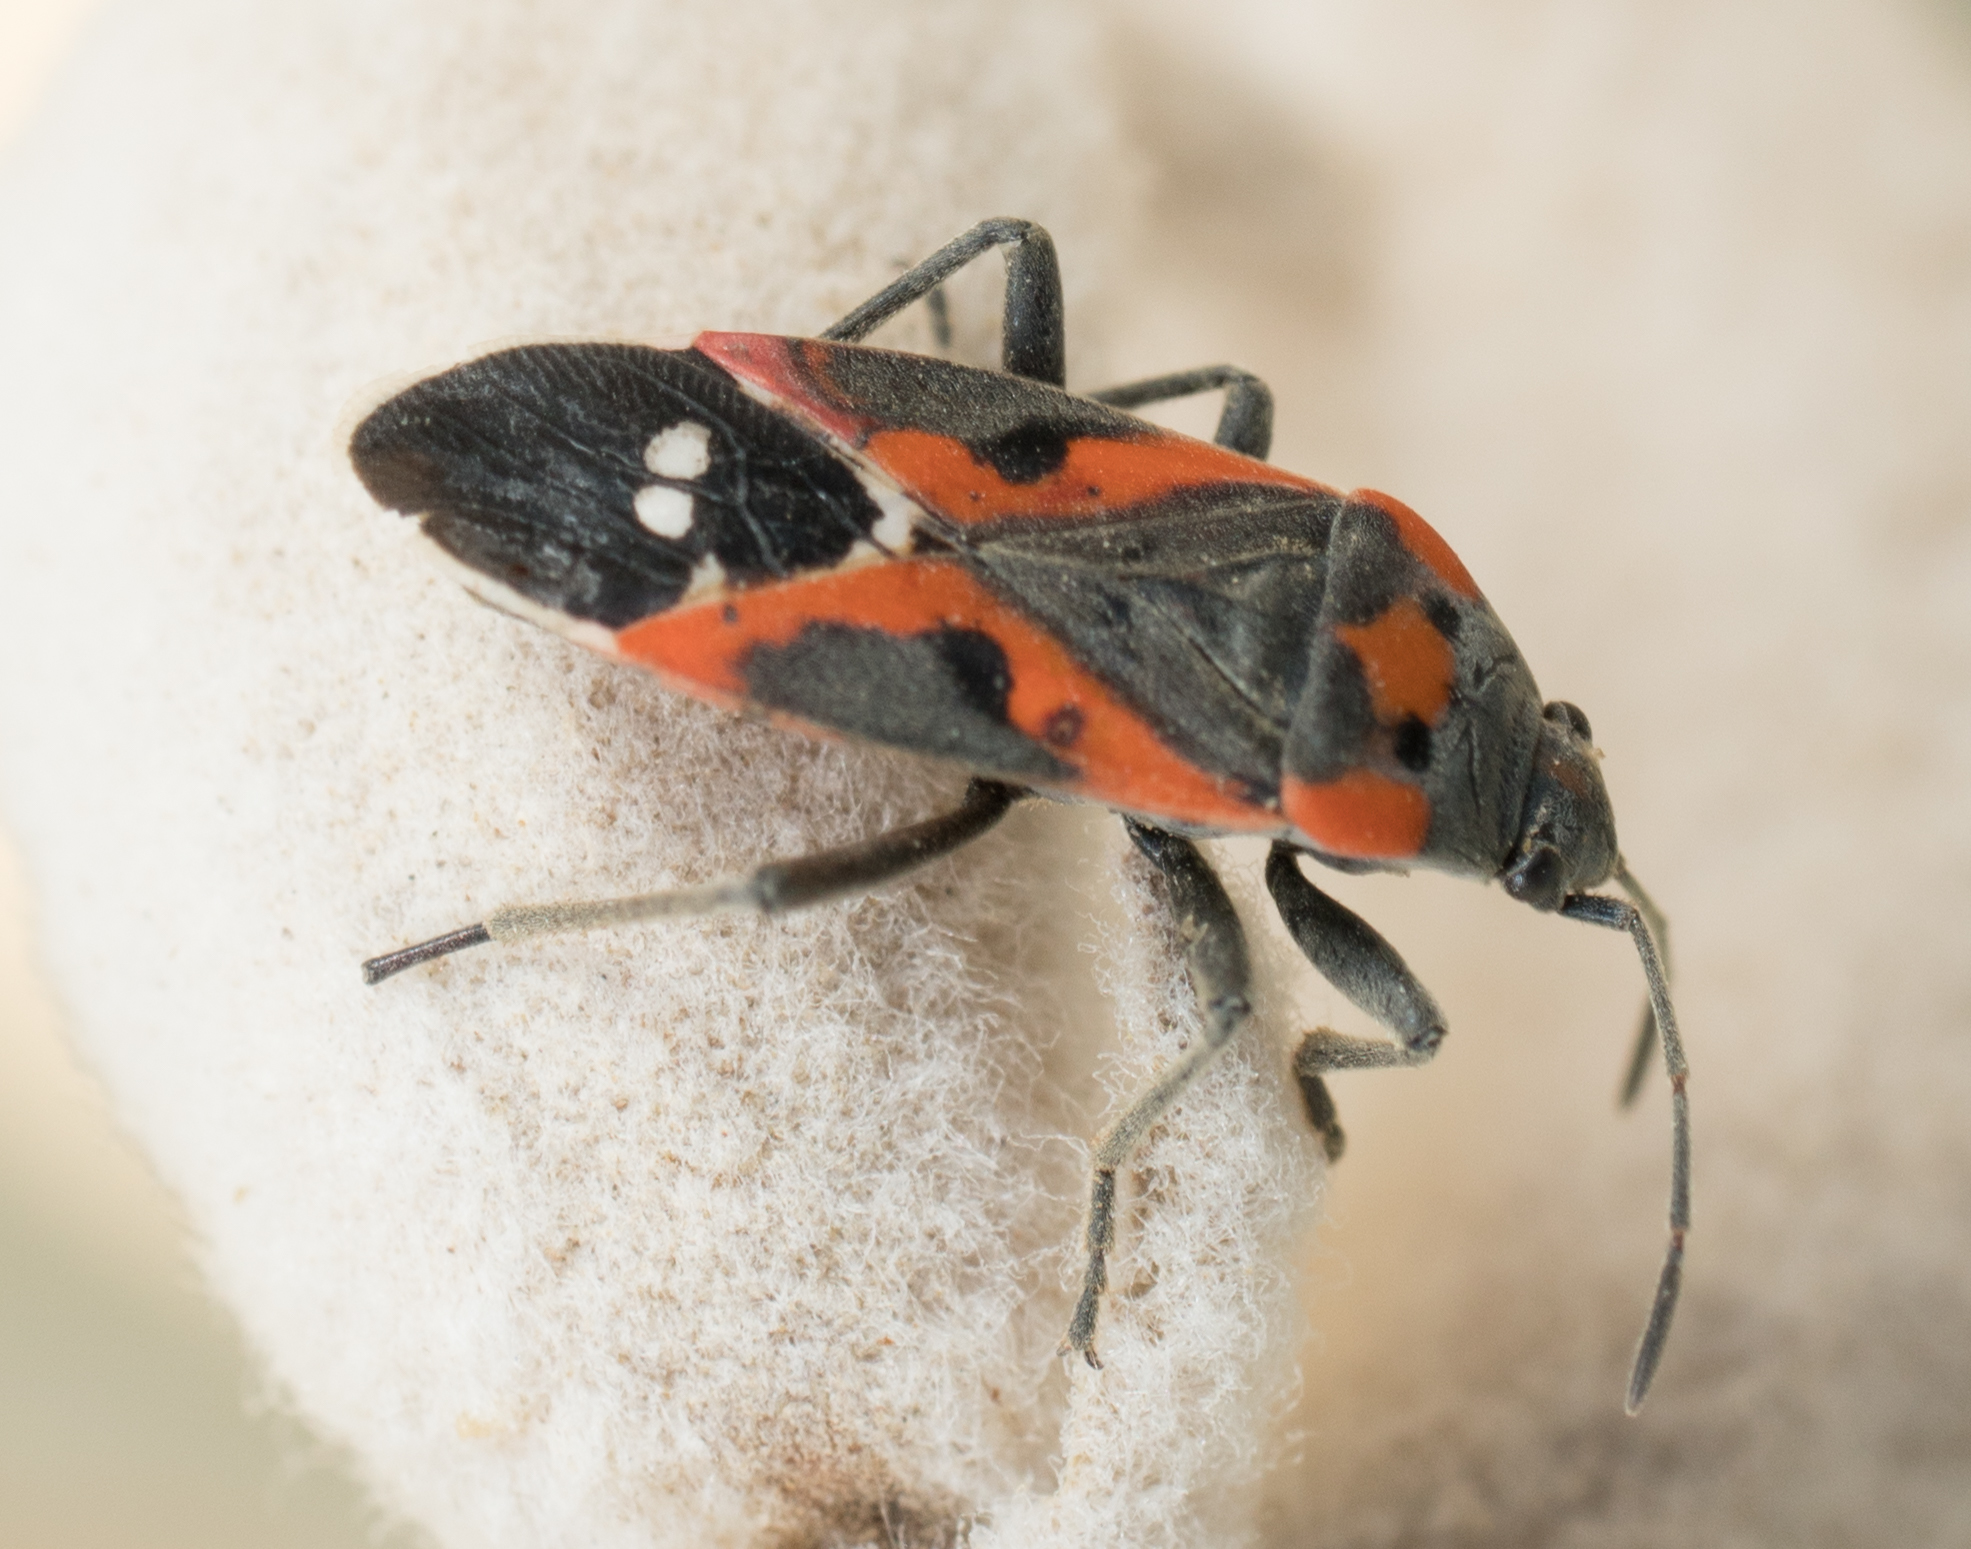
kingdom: Animalia
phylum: Arthropoda
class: Insecta
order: Hemiptera
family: Lygaeidae
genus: Lygaeus
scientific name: Lygaeus kalmii
